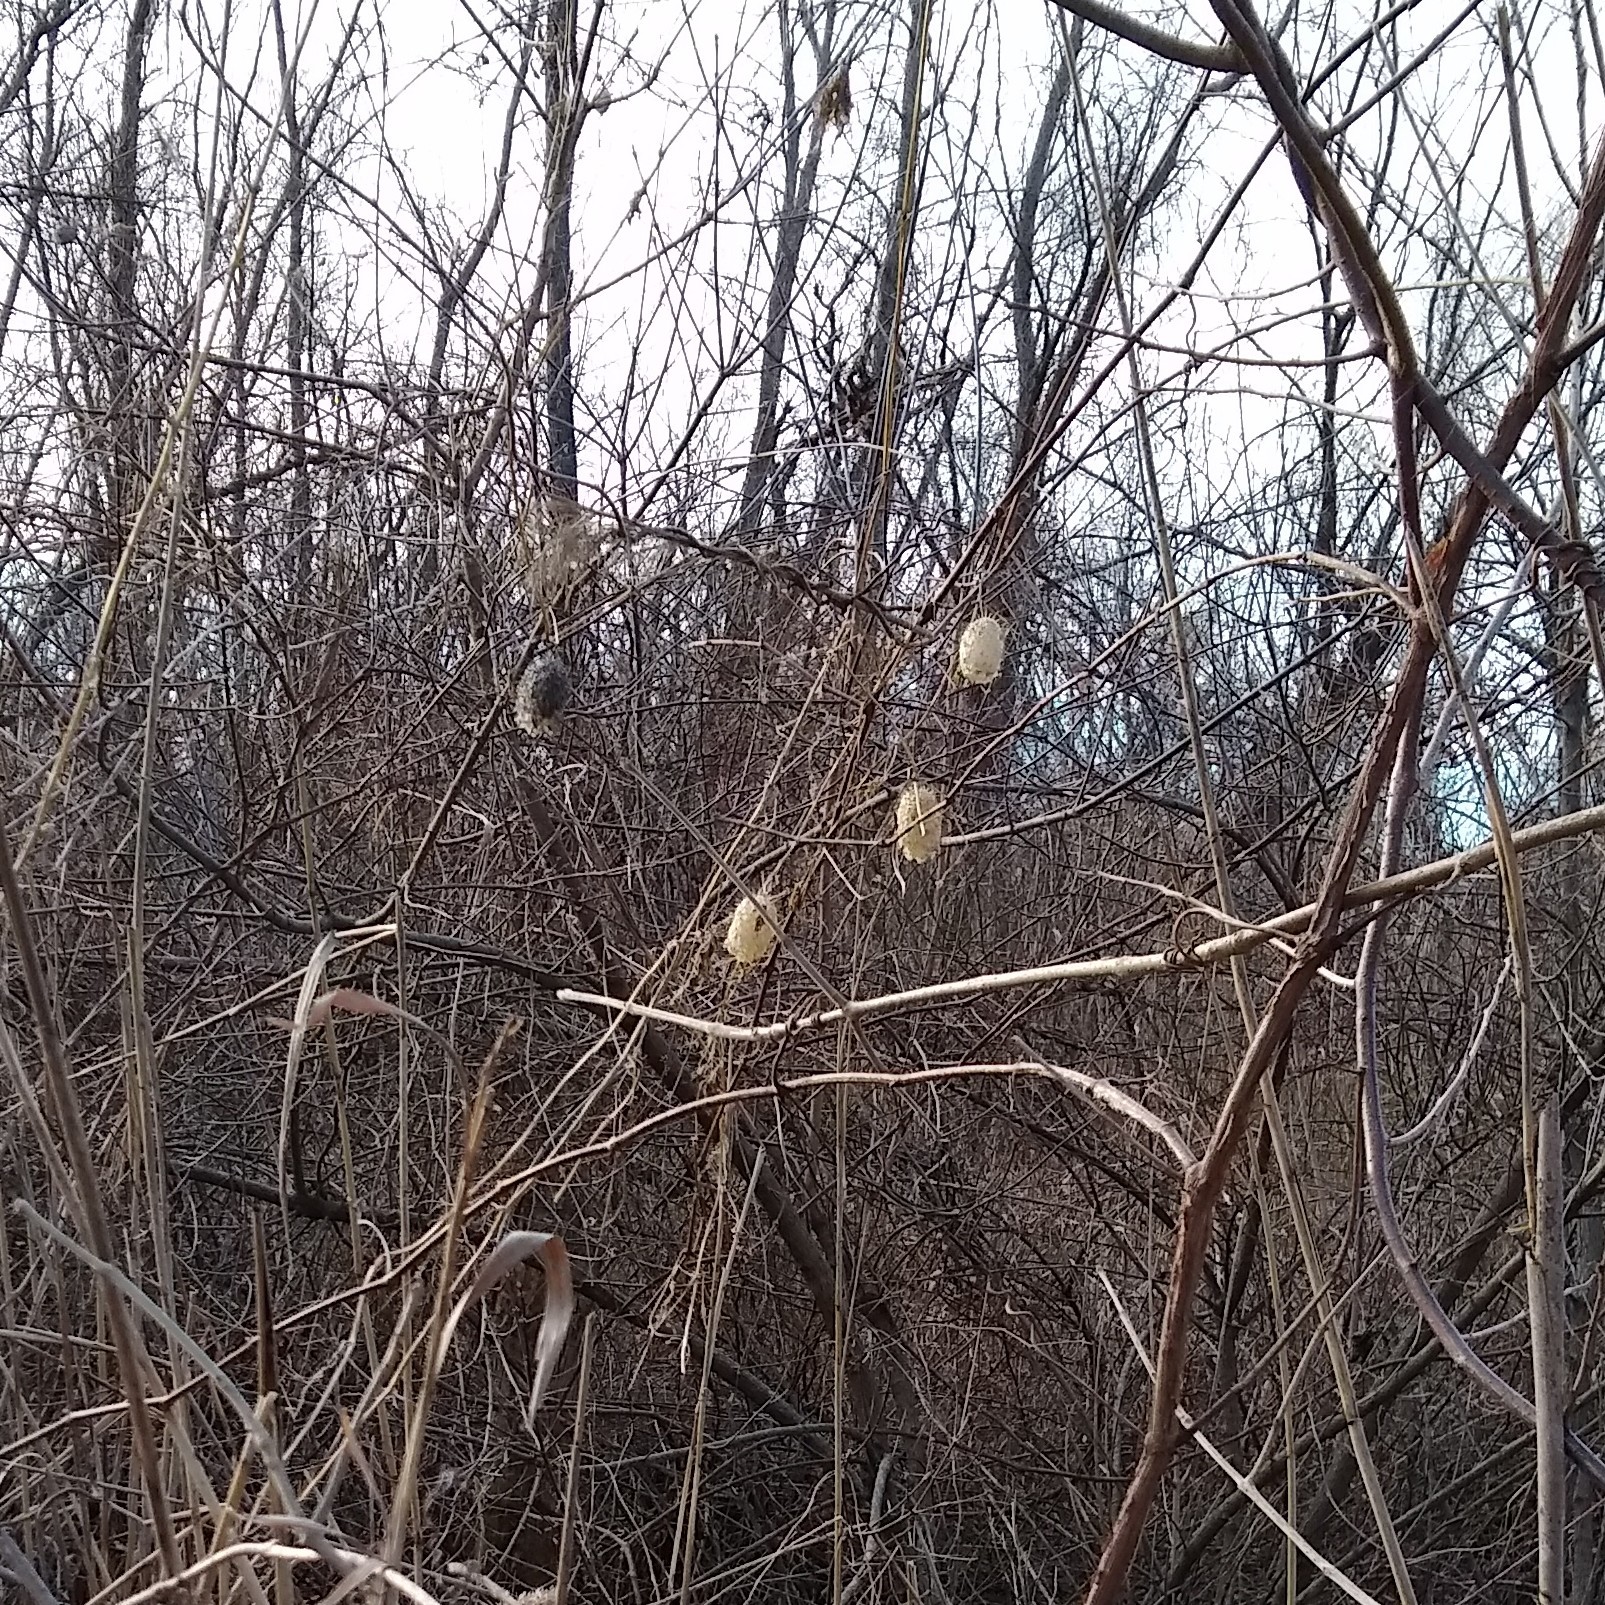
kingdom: Plantae
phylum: Tracheophyta
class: Magnoliopsida
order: Cucurbitales
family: Cucurbitaceae
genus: Echinocystis
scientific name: Echinocystis lobata
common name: Wild cucumber
